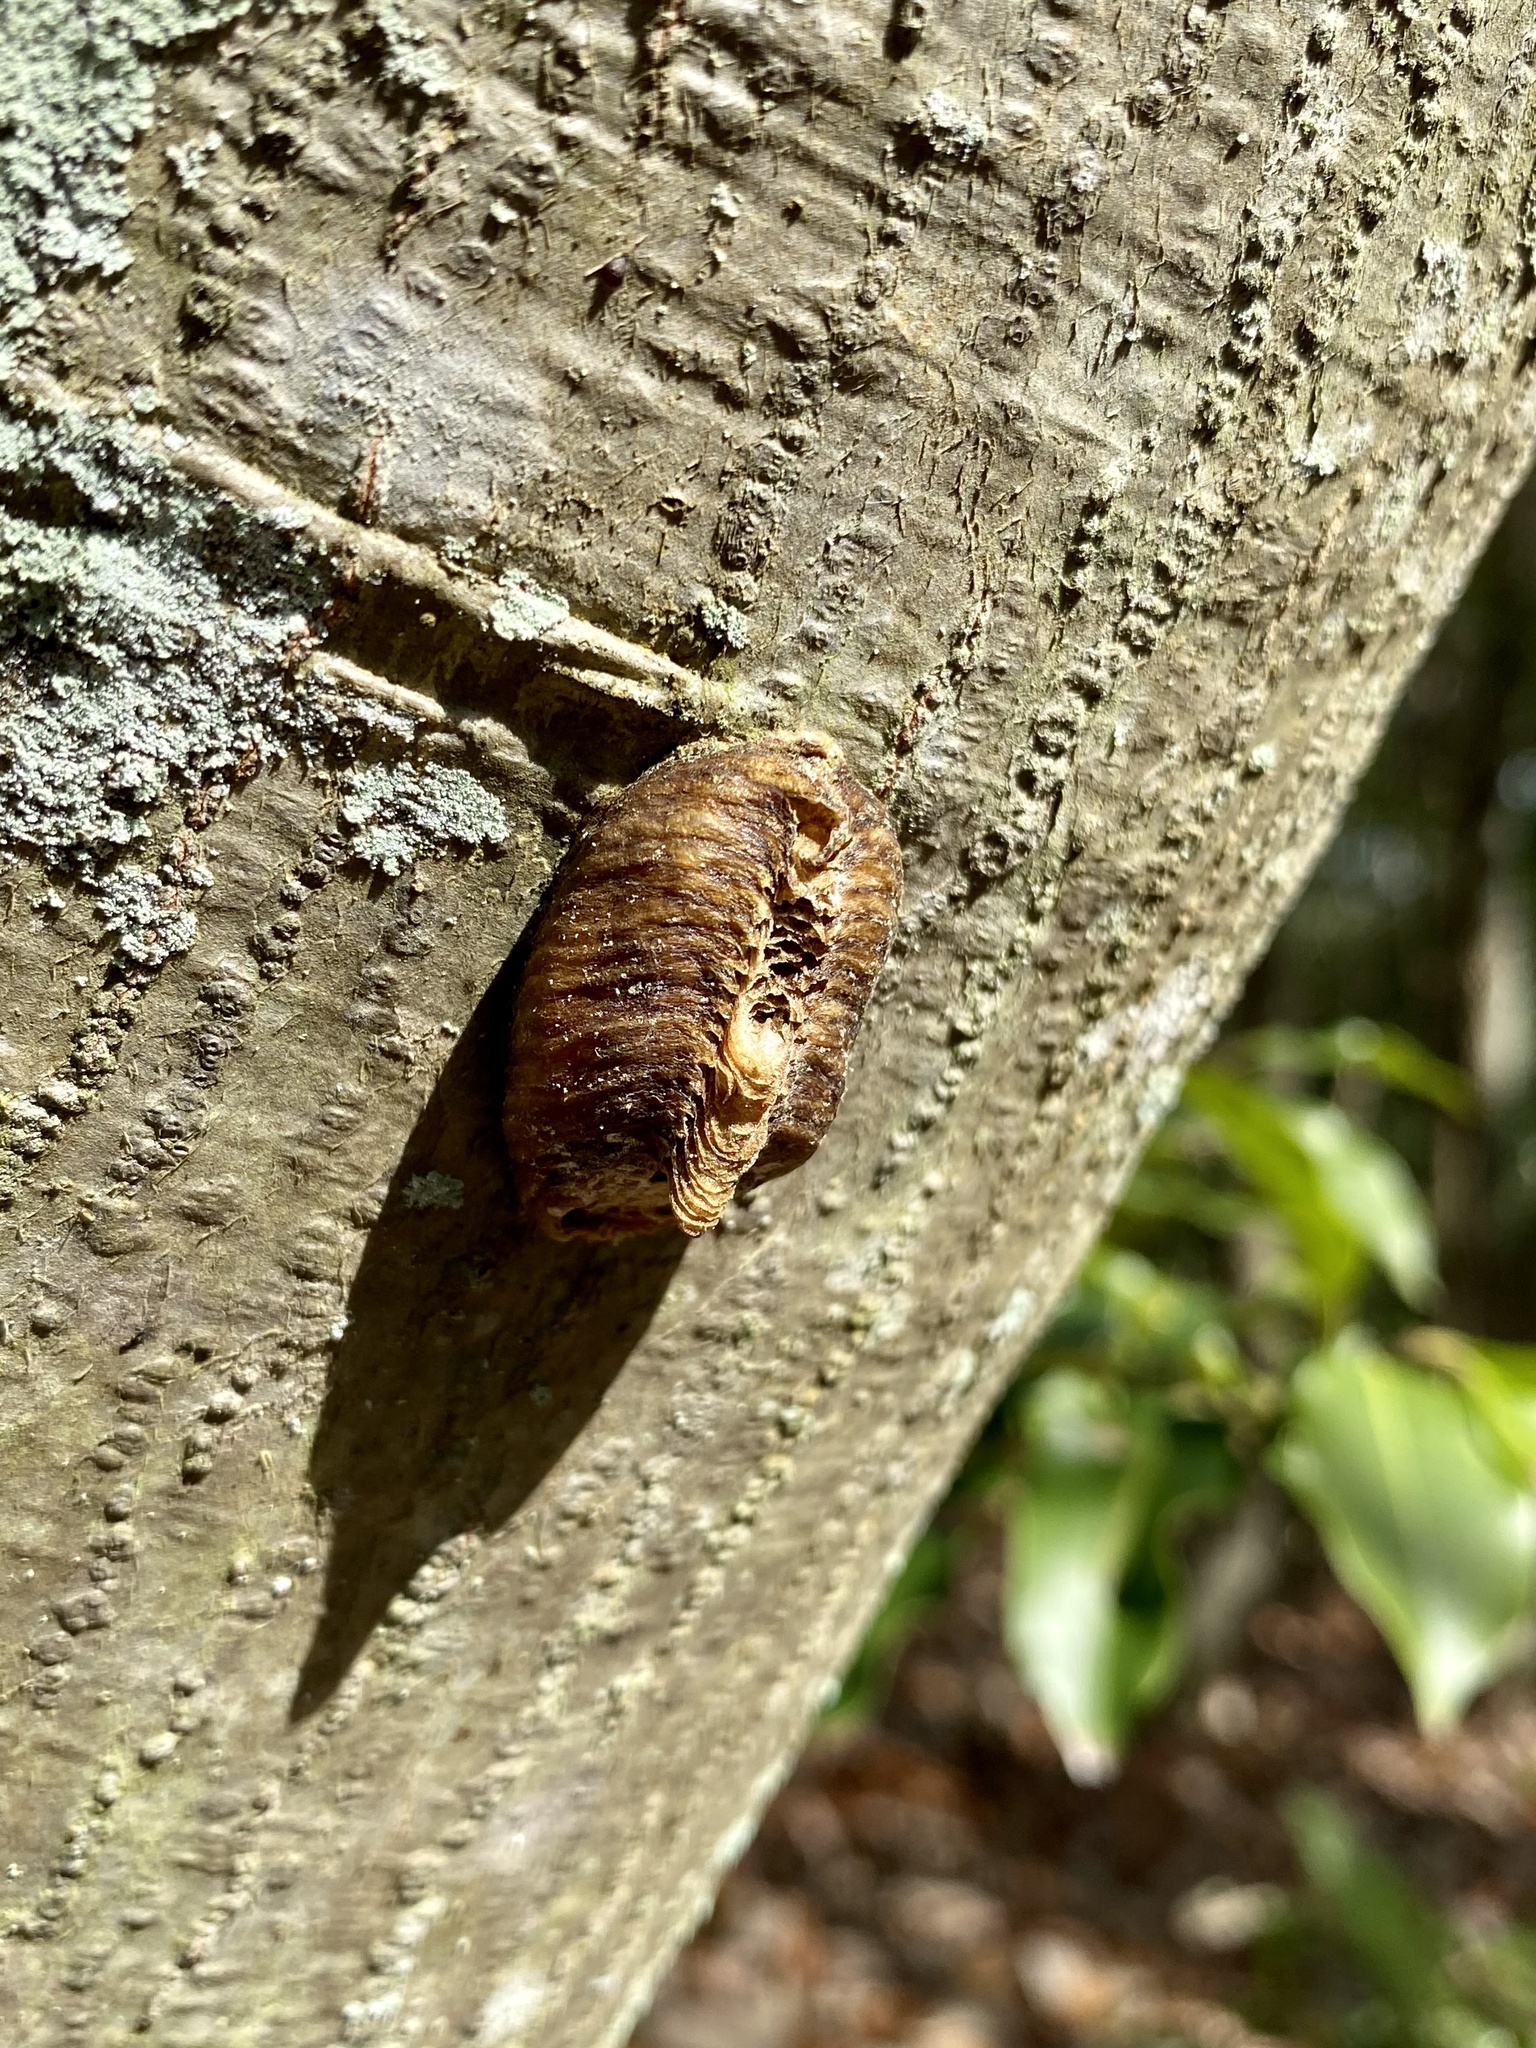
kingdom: Animalia
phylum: Arthropoda
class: Insecta
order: Mantodea
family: Mantidae
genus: Hierodula
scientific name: Hierodula patellifera
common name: Asian mantis
